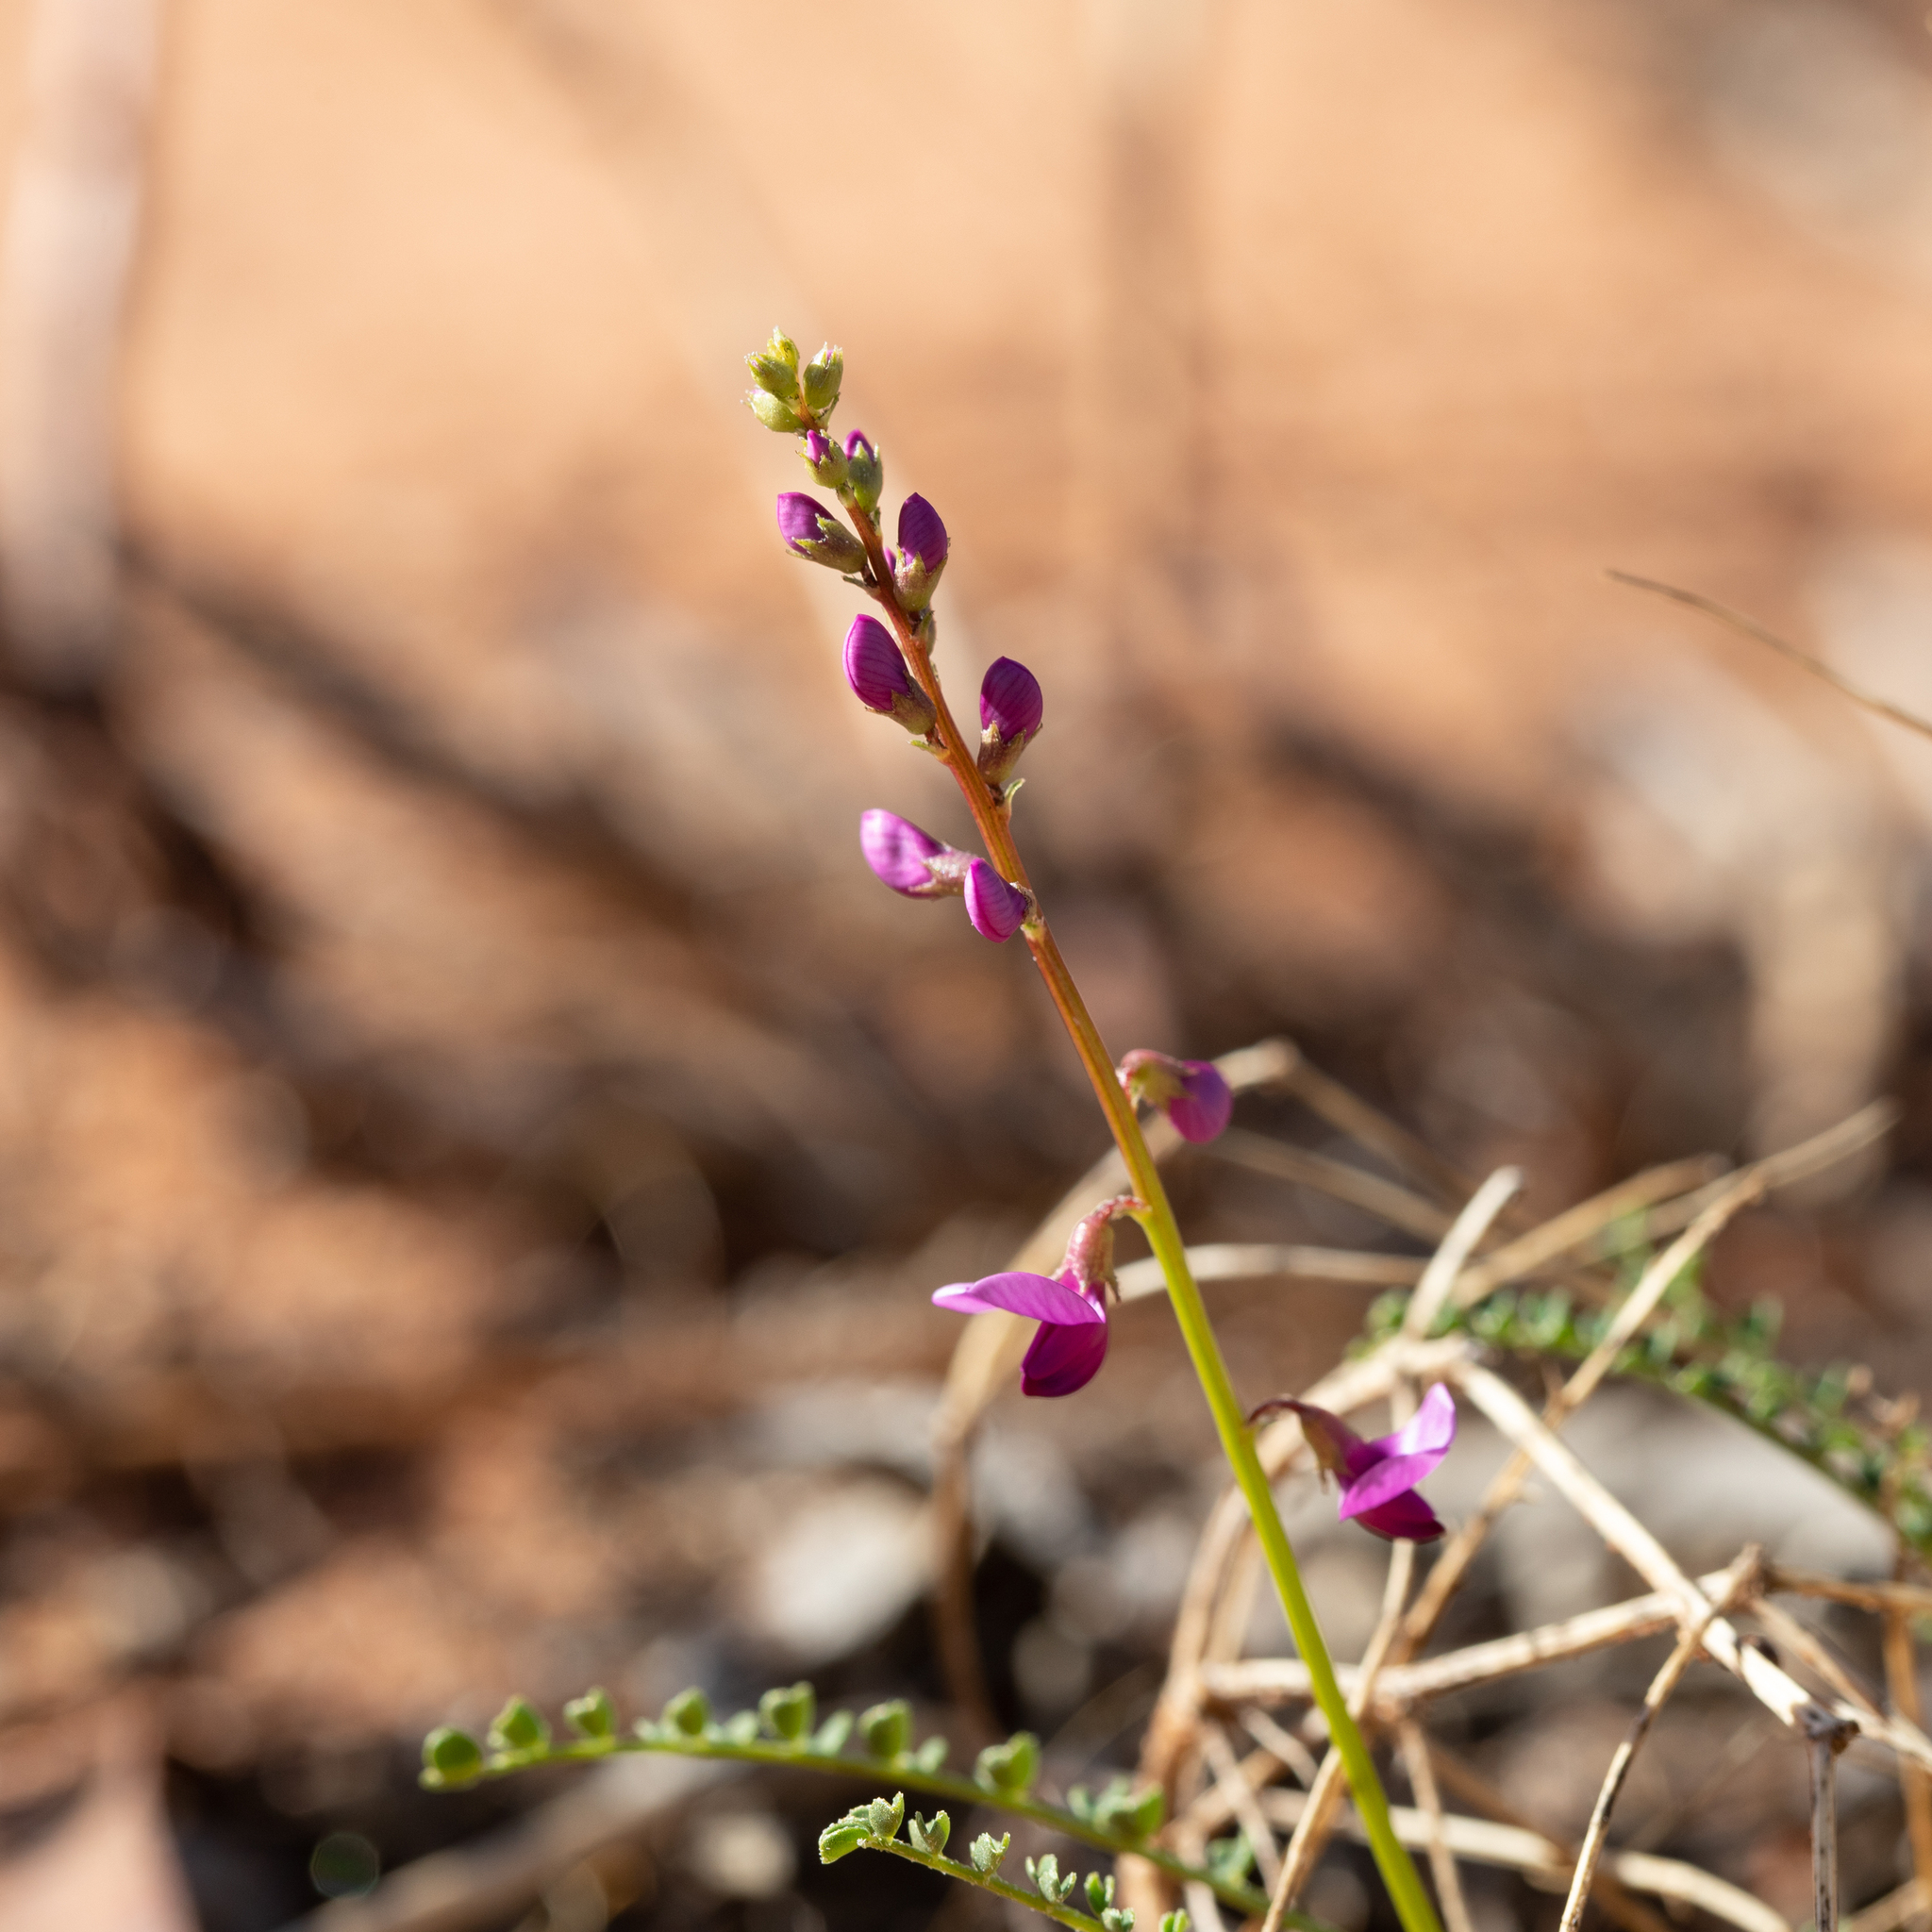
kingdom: Plantae
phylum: Tracheophyta
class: Magnoliopsida
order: Fabales
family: Fabaceae
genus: Swainsona
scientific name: Swainsona microphylla
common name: Small-leaf swainsona-pea
